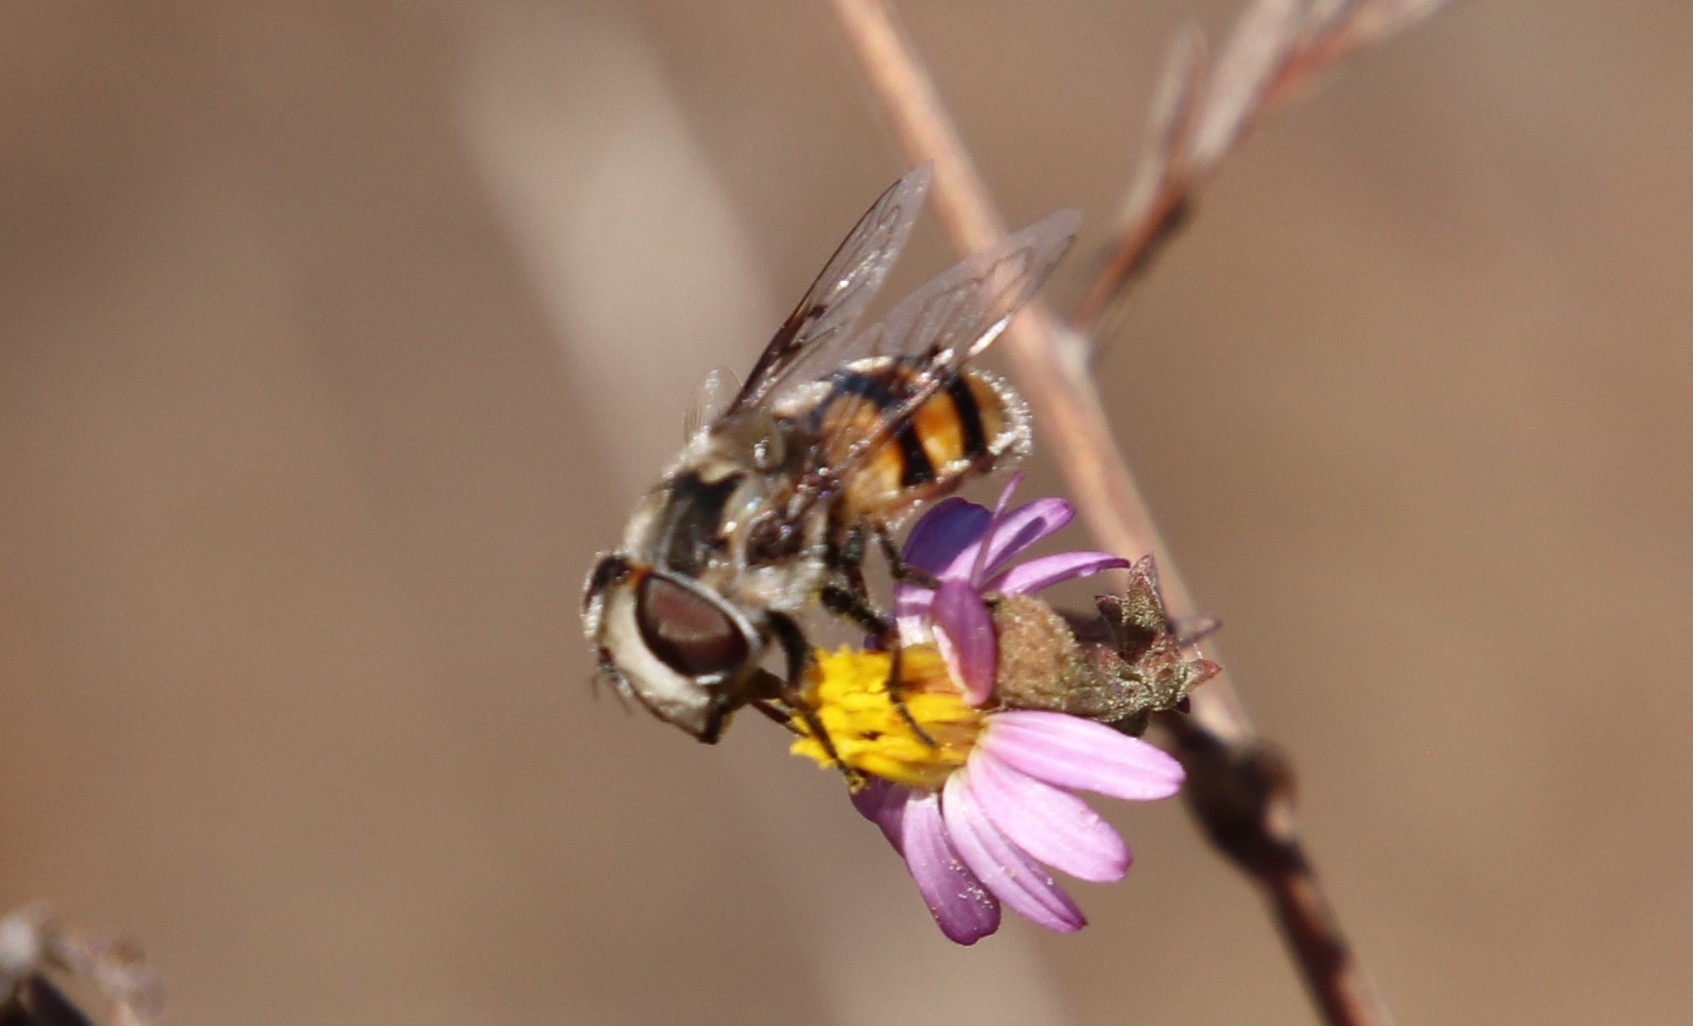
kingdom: Animalia
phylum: Arthropoda
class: Insecta
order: Diptera
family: Syrphidae
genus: Copestylum
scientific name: Copestylum avidum
